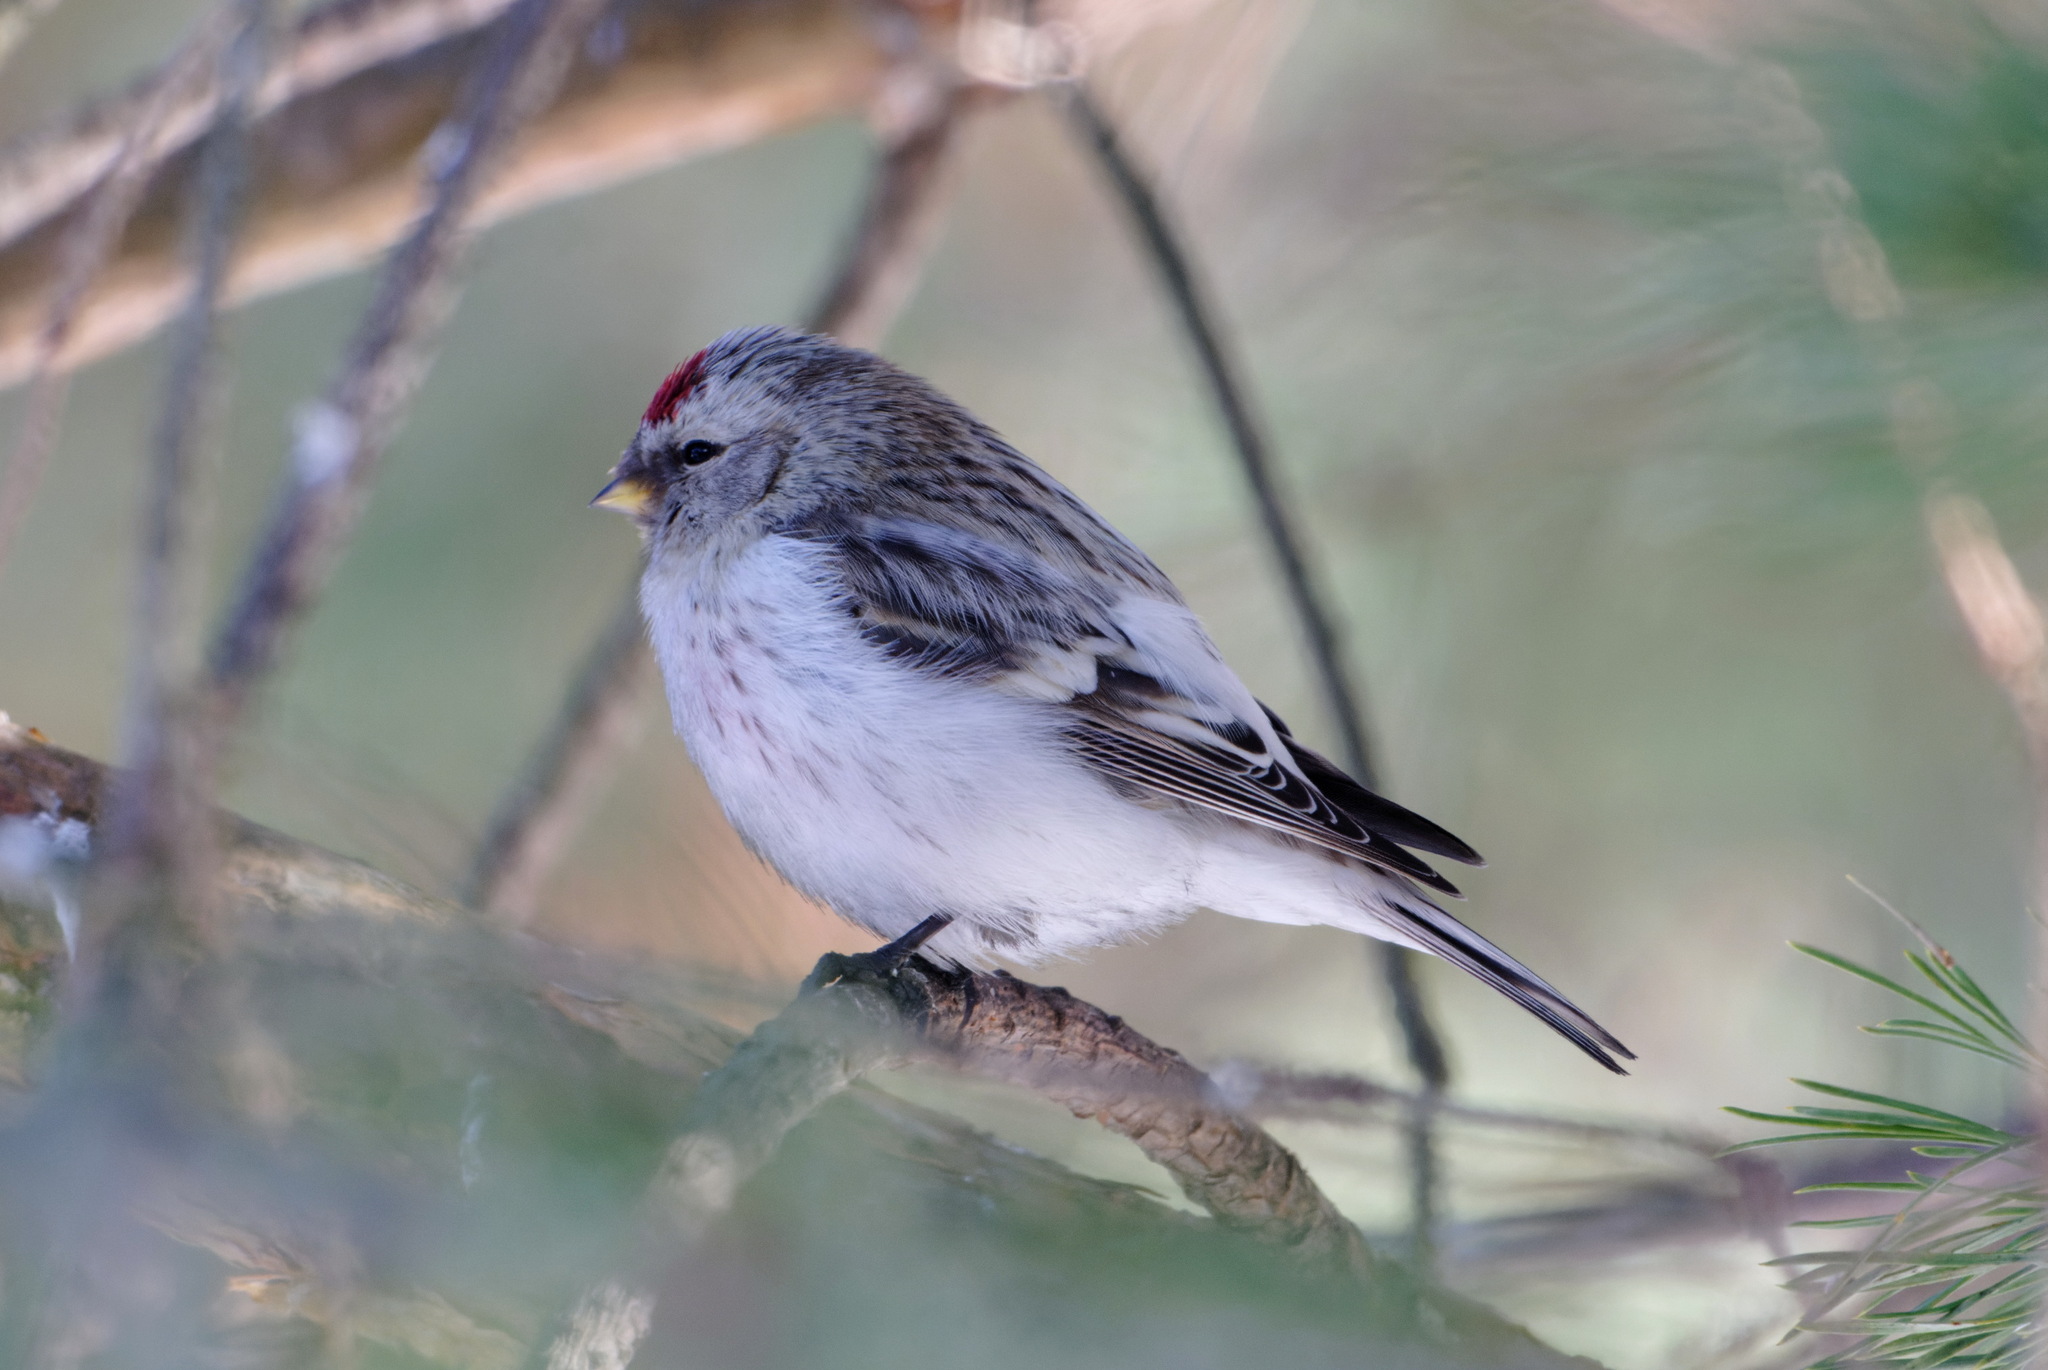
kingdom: Animalia
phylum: Chordata
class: Aves
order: Passeriformes
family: Fringillidae
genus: Acanthis
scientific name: Acanthis hornemanni
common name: Arctic redpoll
